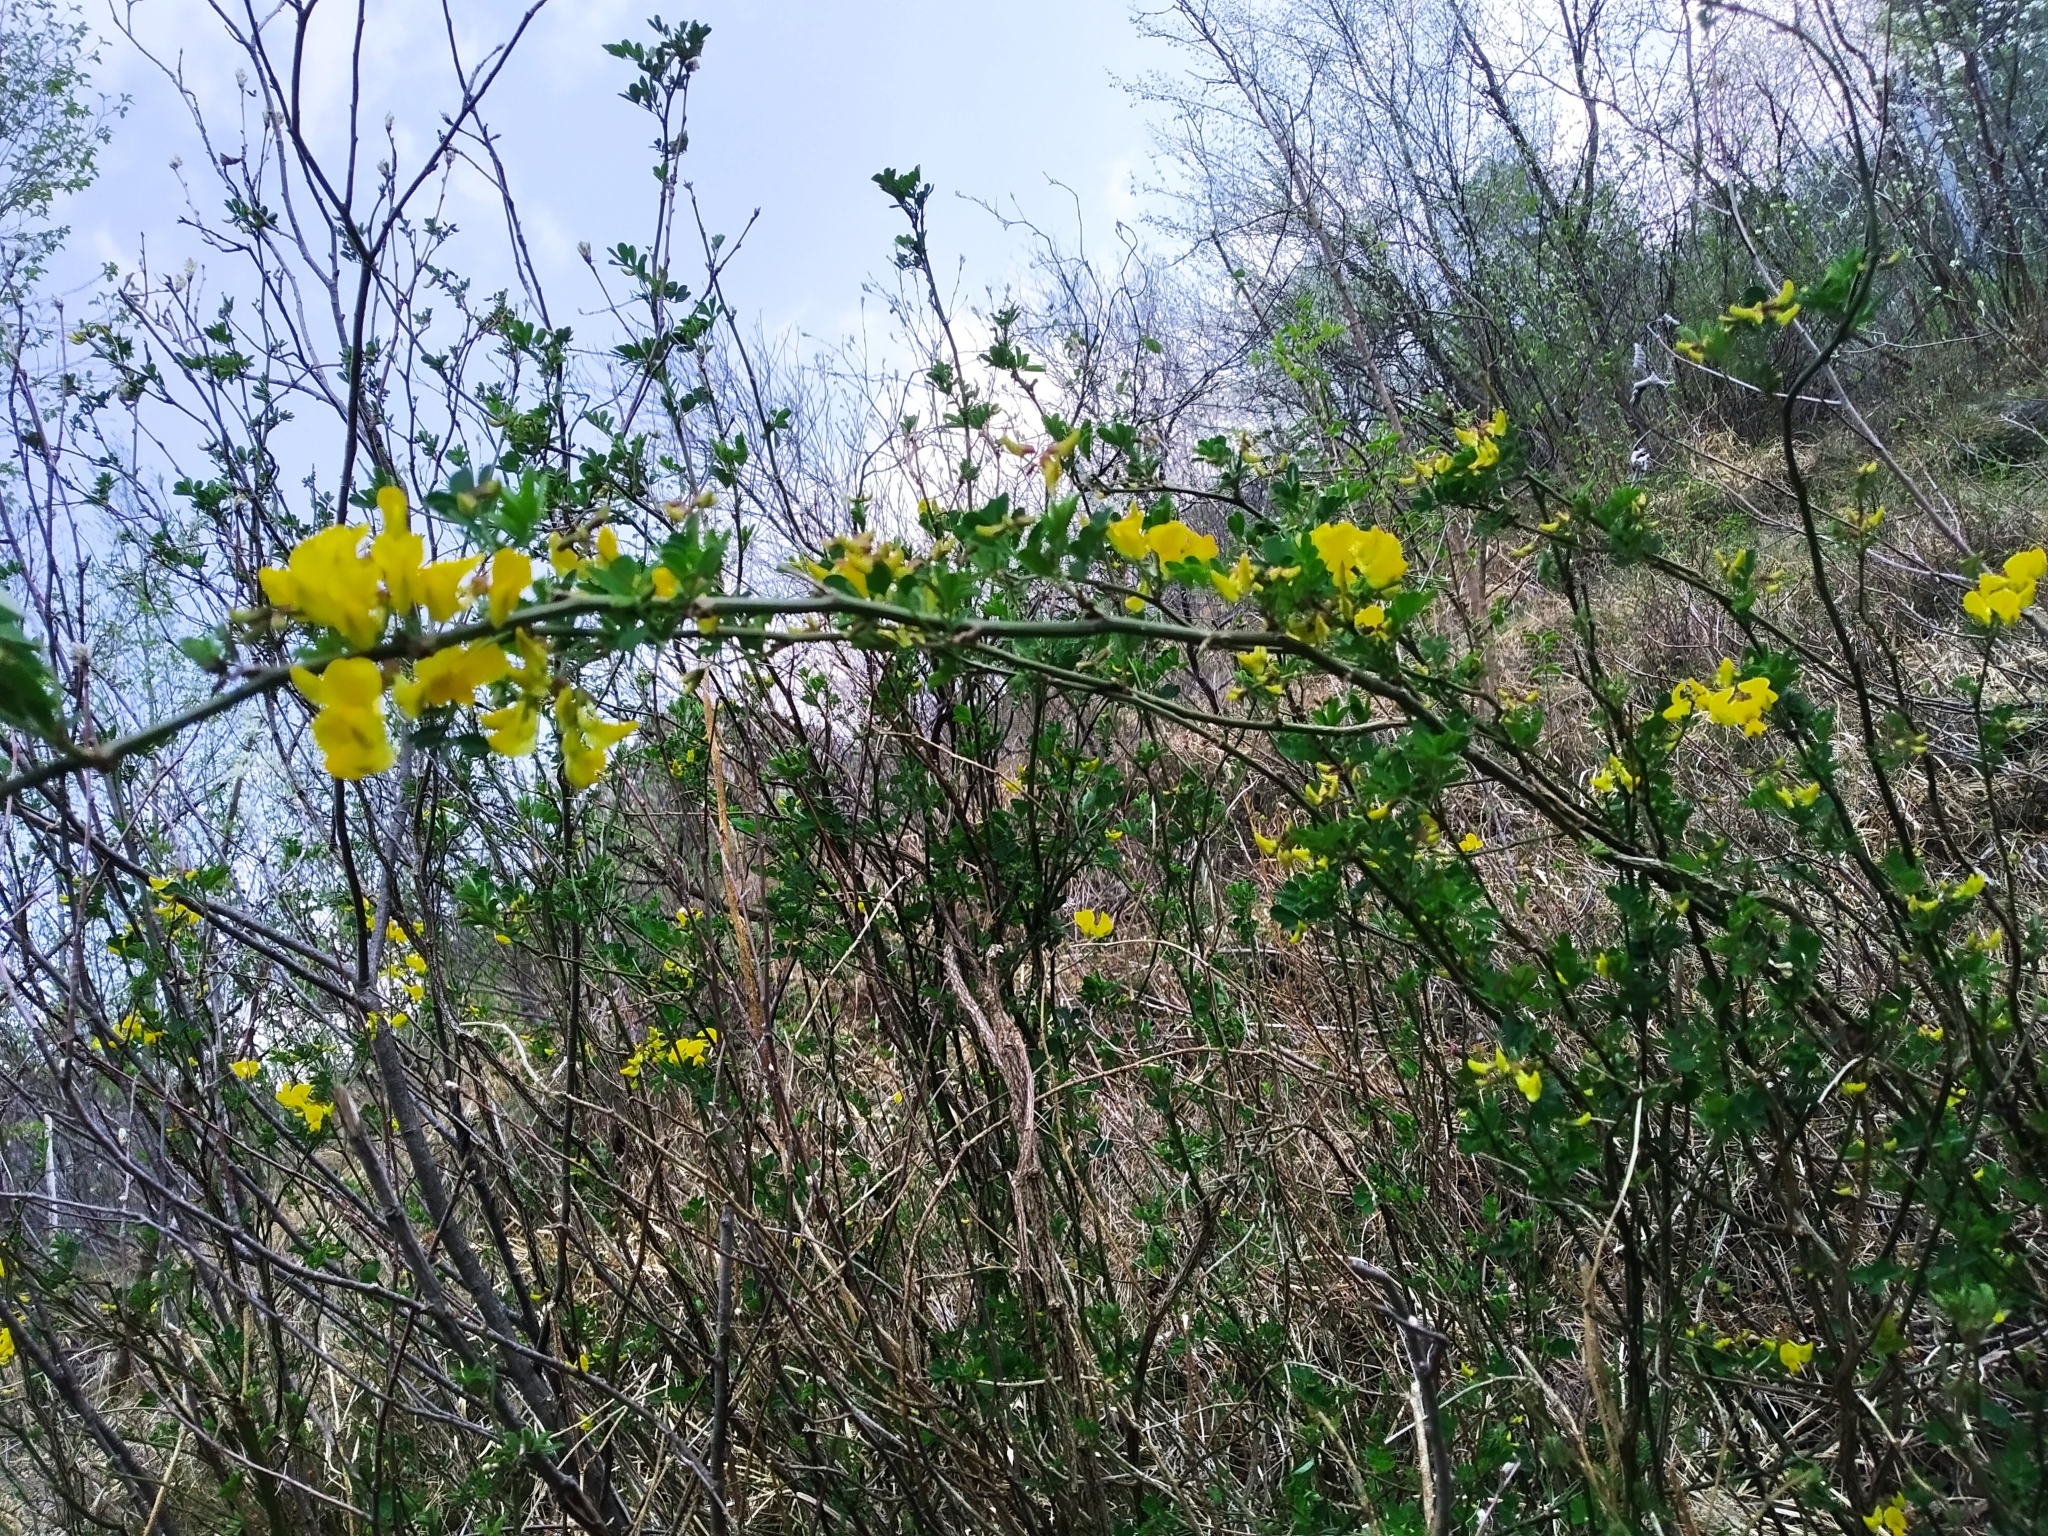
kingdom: Plantae
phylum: Tracheophyta
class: Magnoliopsida
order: Fabales
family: Fabaceae
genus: Hippocrepis
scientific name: Hippocrepis emerus
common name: Scorpion senna
